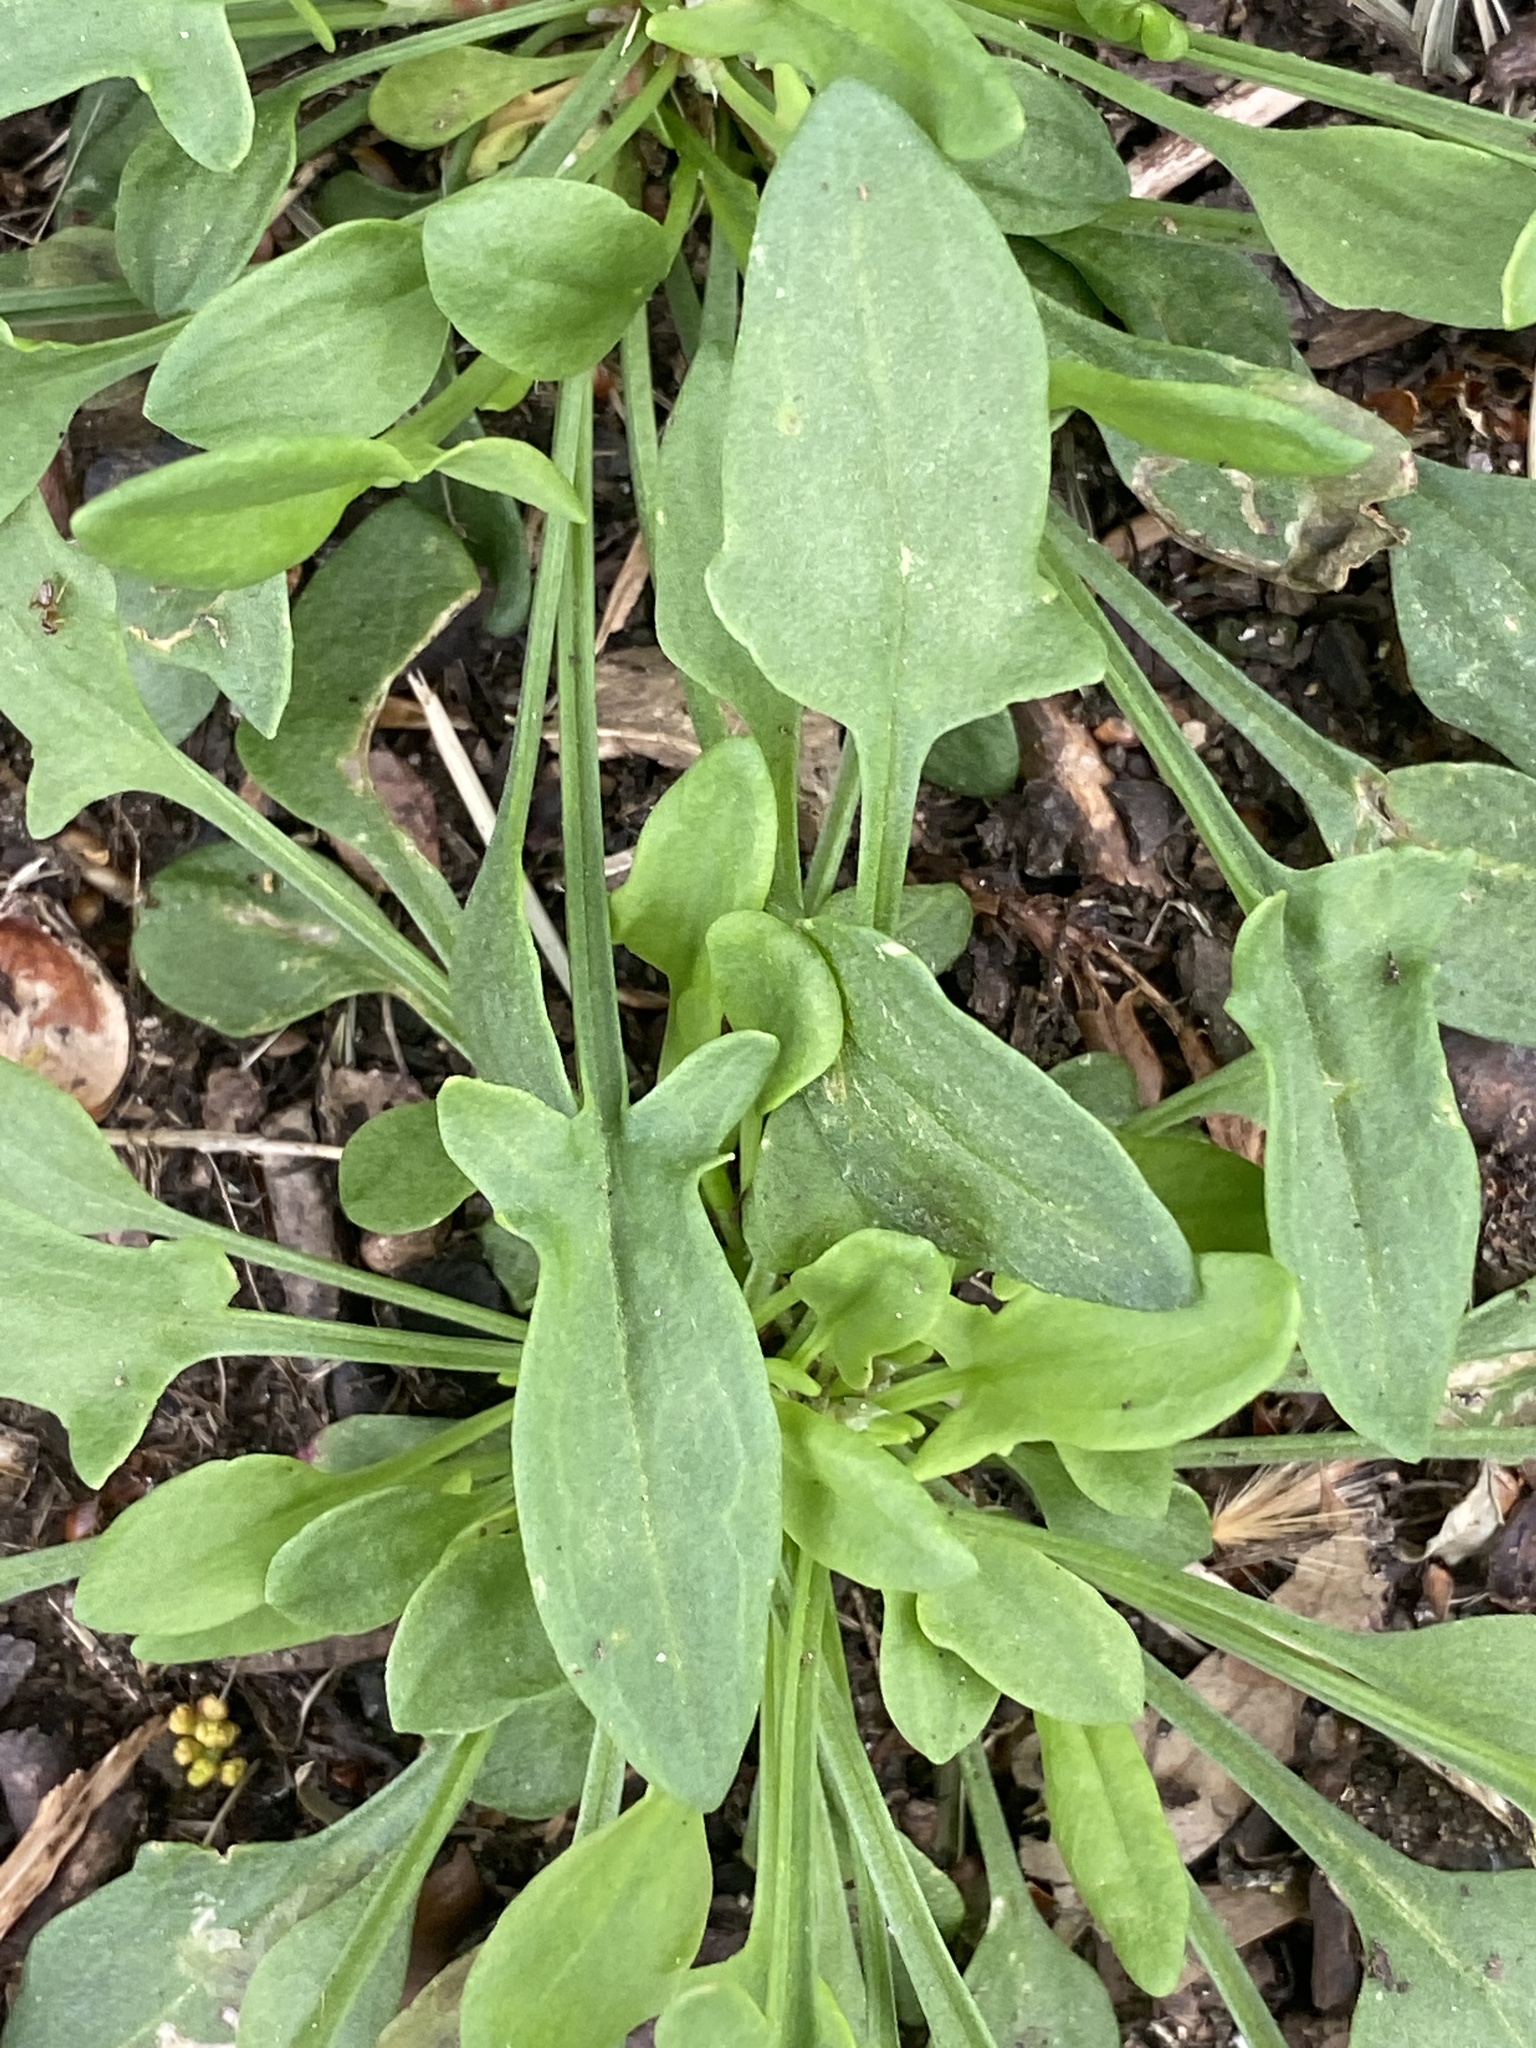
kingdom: Plantae
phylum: Tracheophyta
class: Magnoliopsida
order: Caryophyllales
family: Polygonaceae
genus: Rumex
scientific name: Rumex acetosella
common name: Common sheep sorrel
